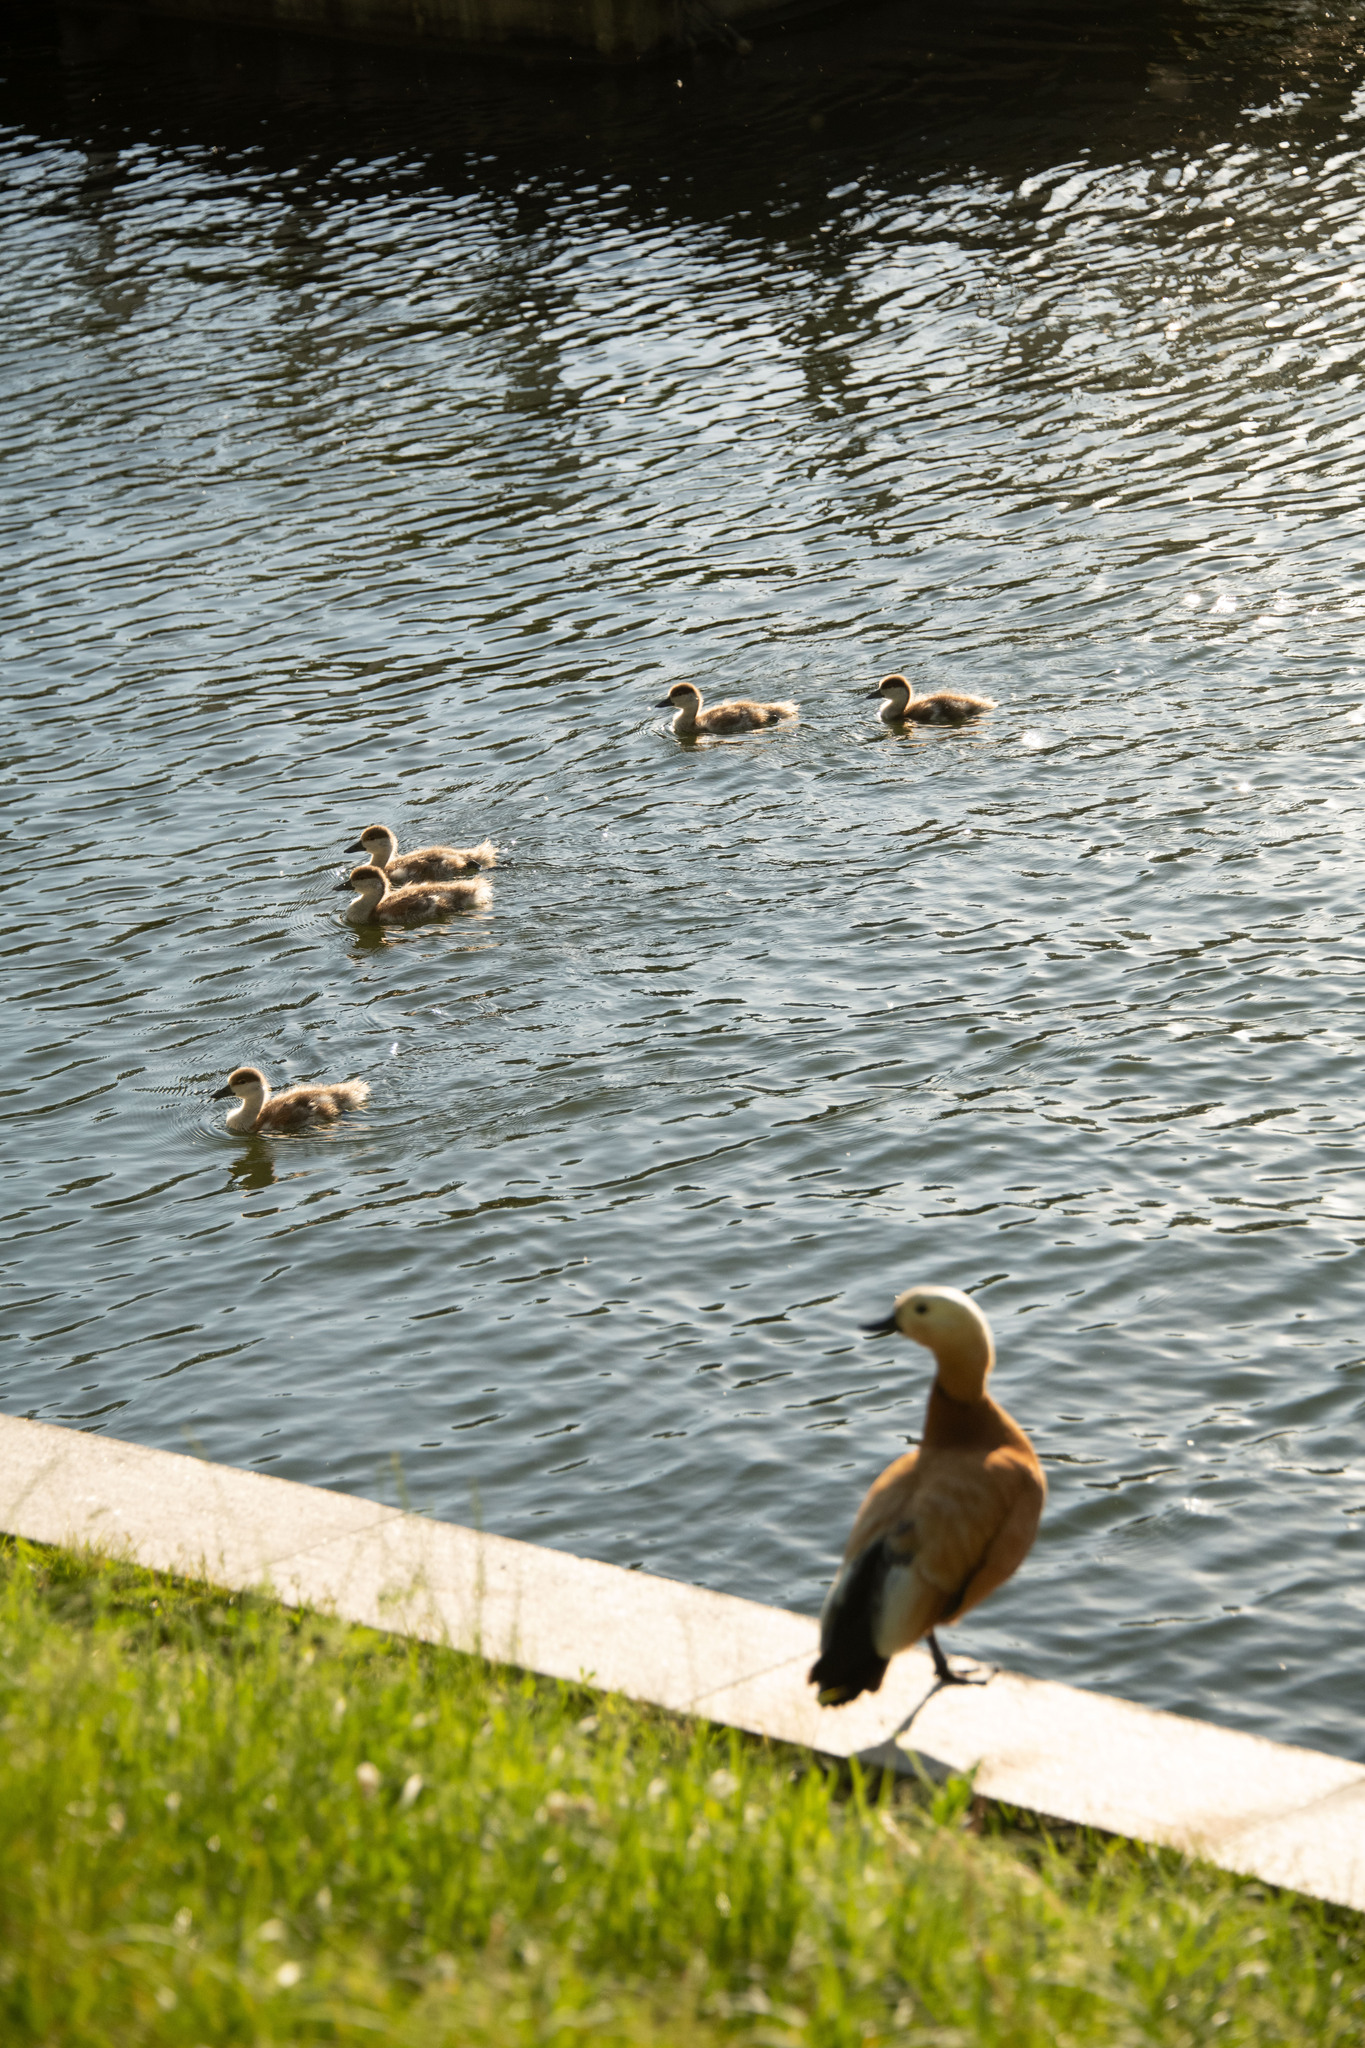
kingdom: Animalia
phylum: Chordata
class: Aves
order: Anseriformes
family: Anatidae
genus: Tadorna
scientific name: Tadorna ferruginea
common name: Ruddy shelduck
